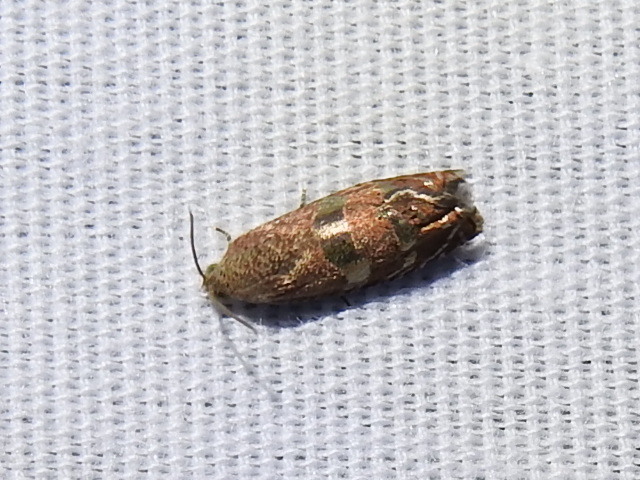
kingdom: Animalia
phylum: Arthropoda
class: Insecta
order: Lepidoptera
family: Tortricidae
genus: Cydia
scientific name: Cydia latiferreana
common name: Filbertworm moth
